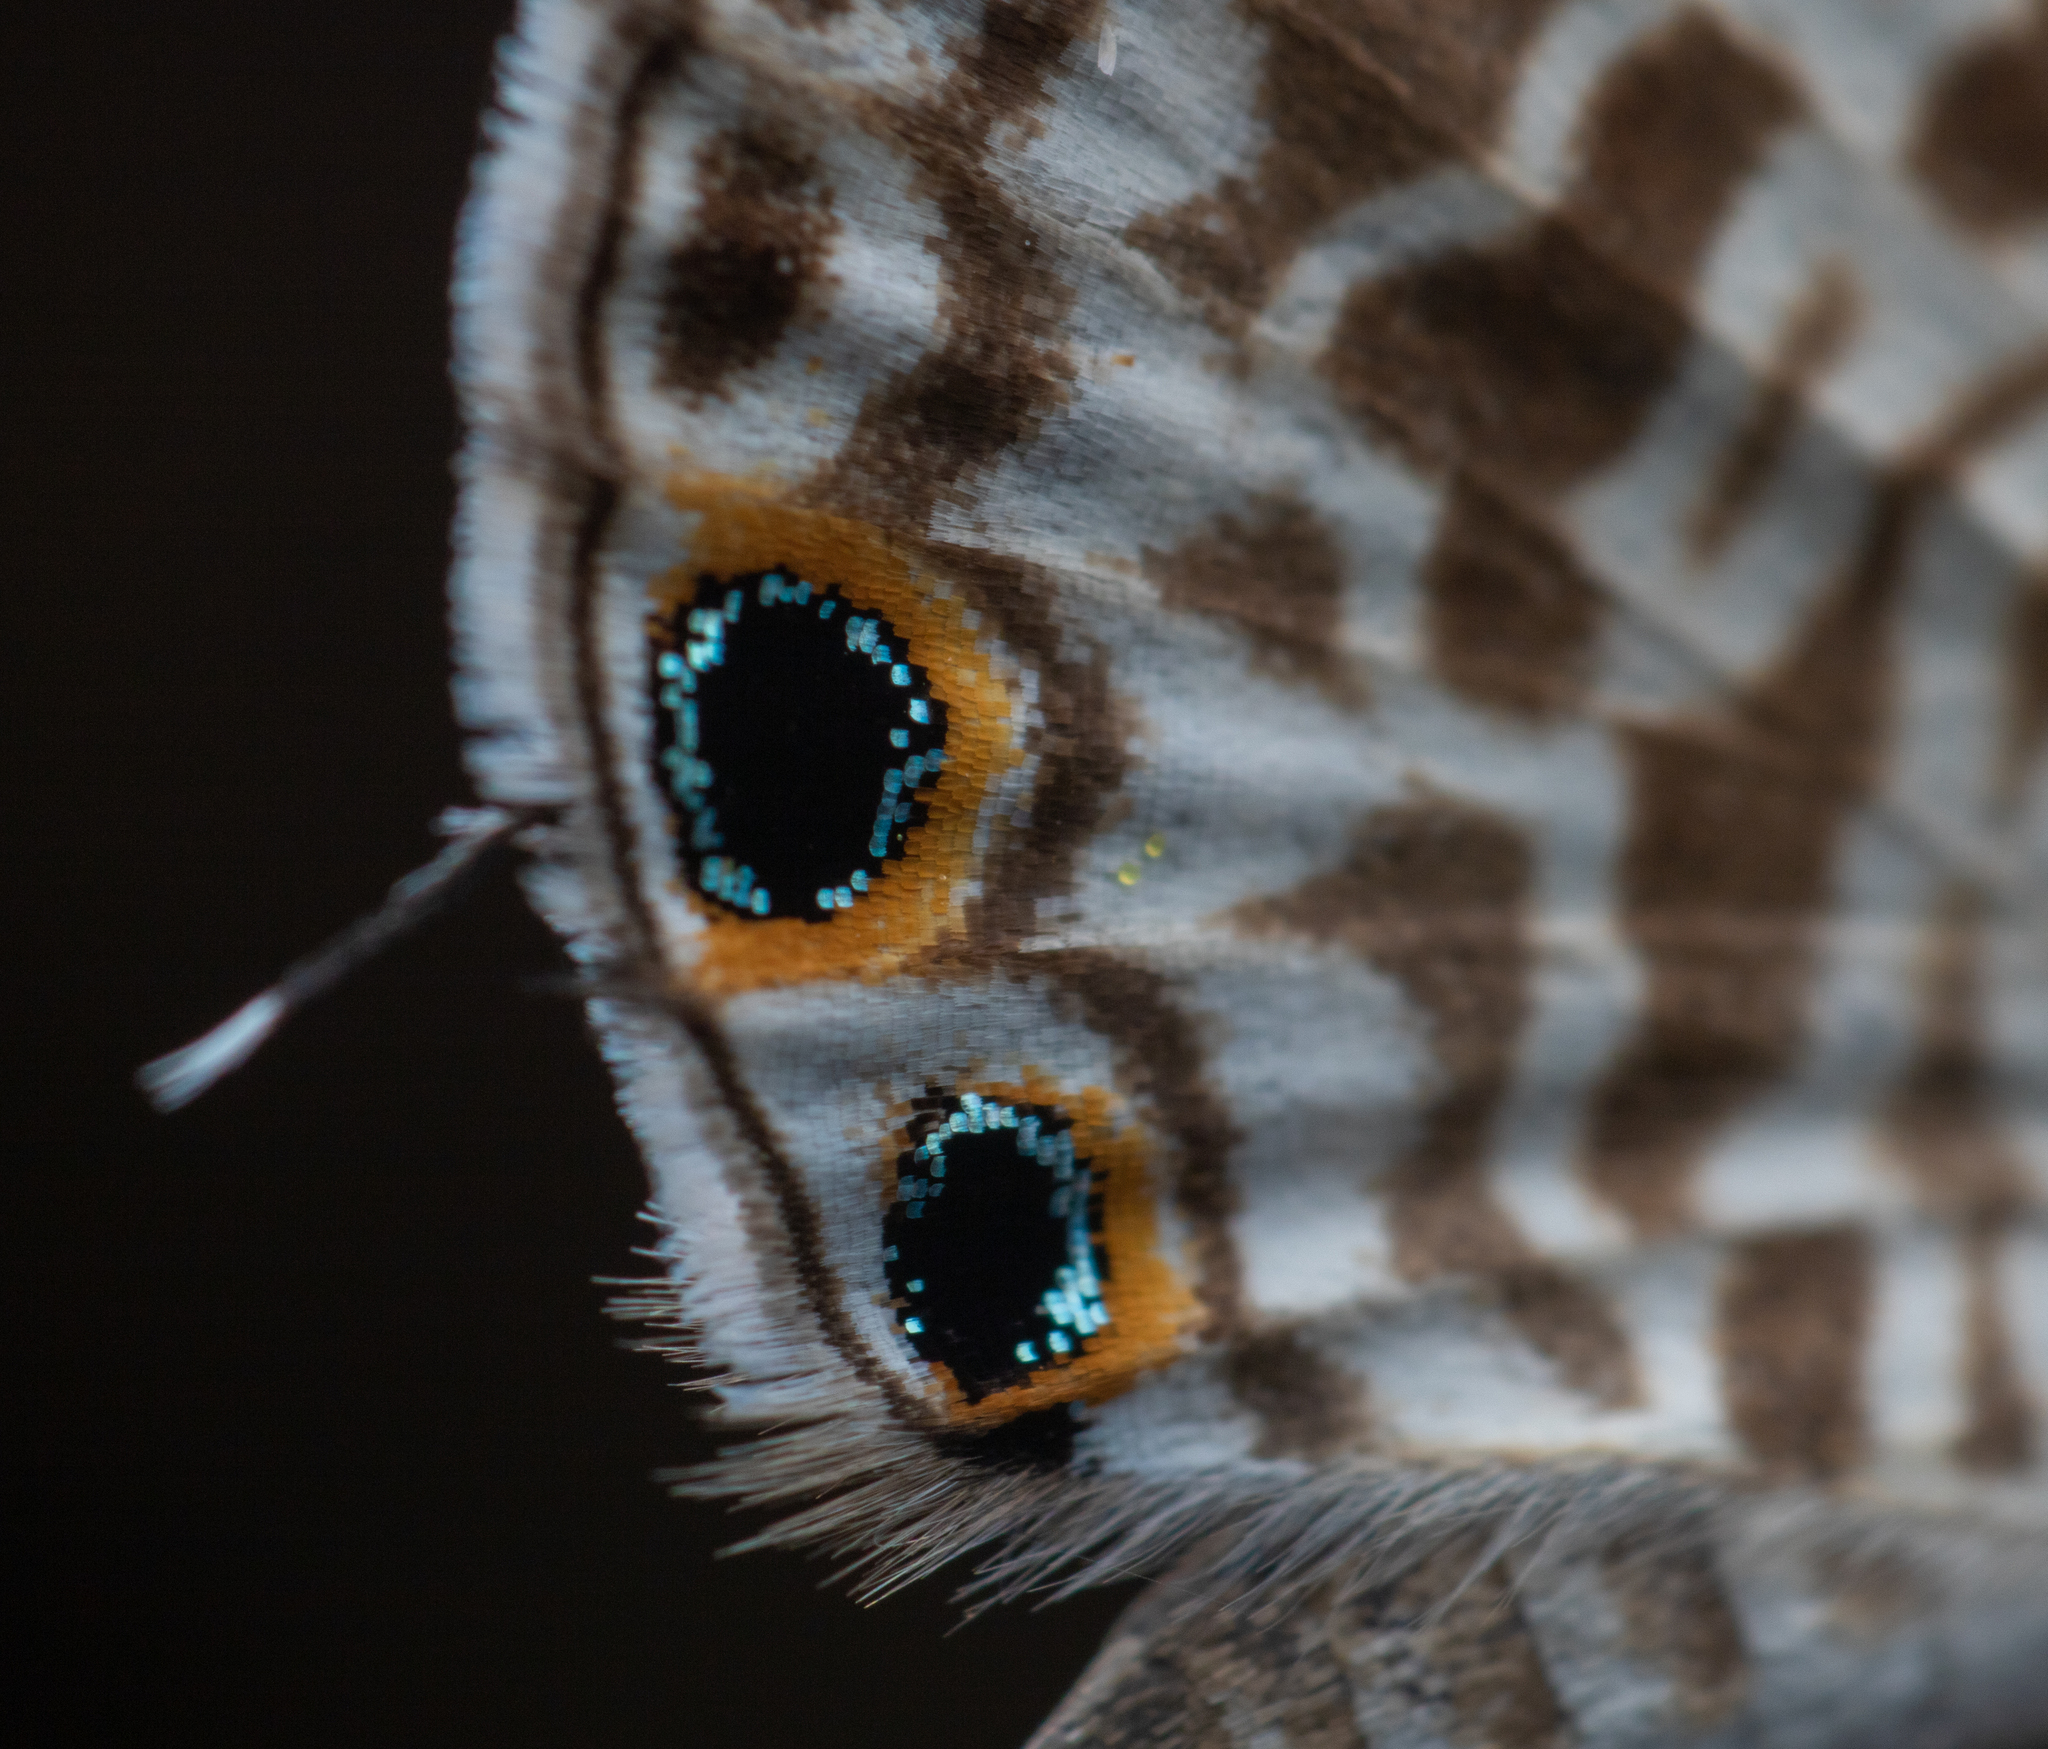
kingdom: Animalia
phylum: Arthropoda
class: Insecta
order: Lepidoptera
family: Lycaenidae
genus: Leptotes
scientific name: Leptotes plinius
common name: Zebra blue
